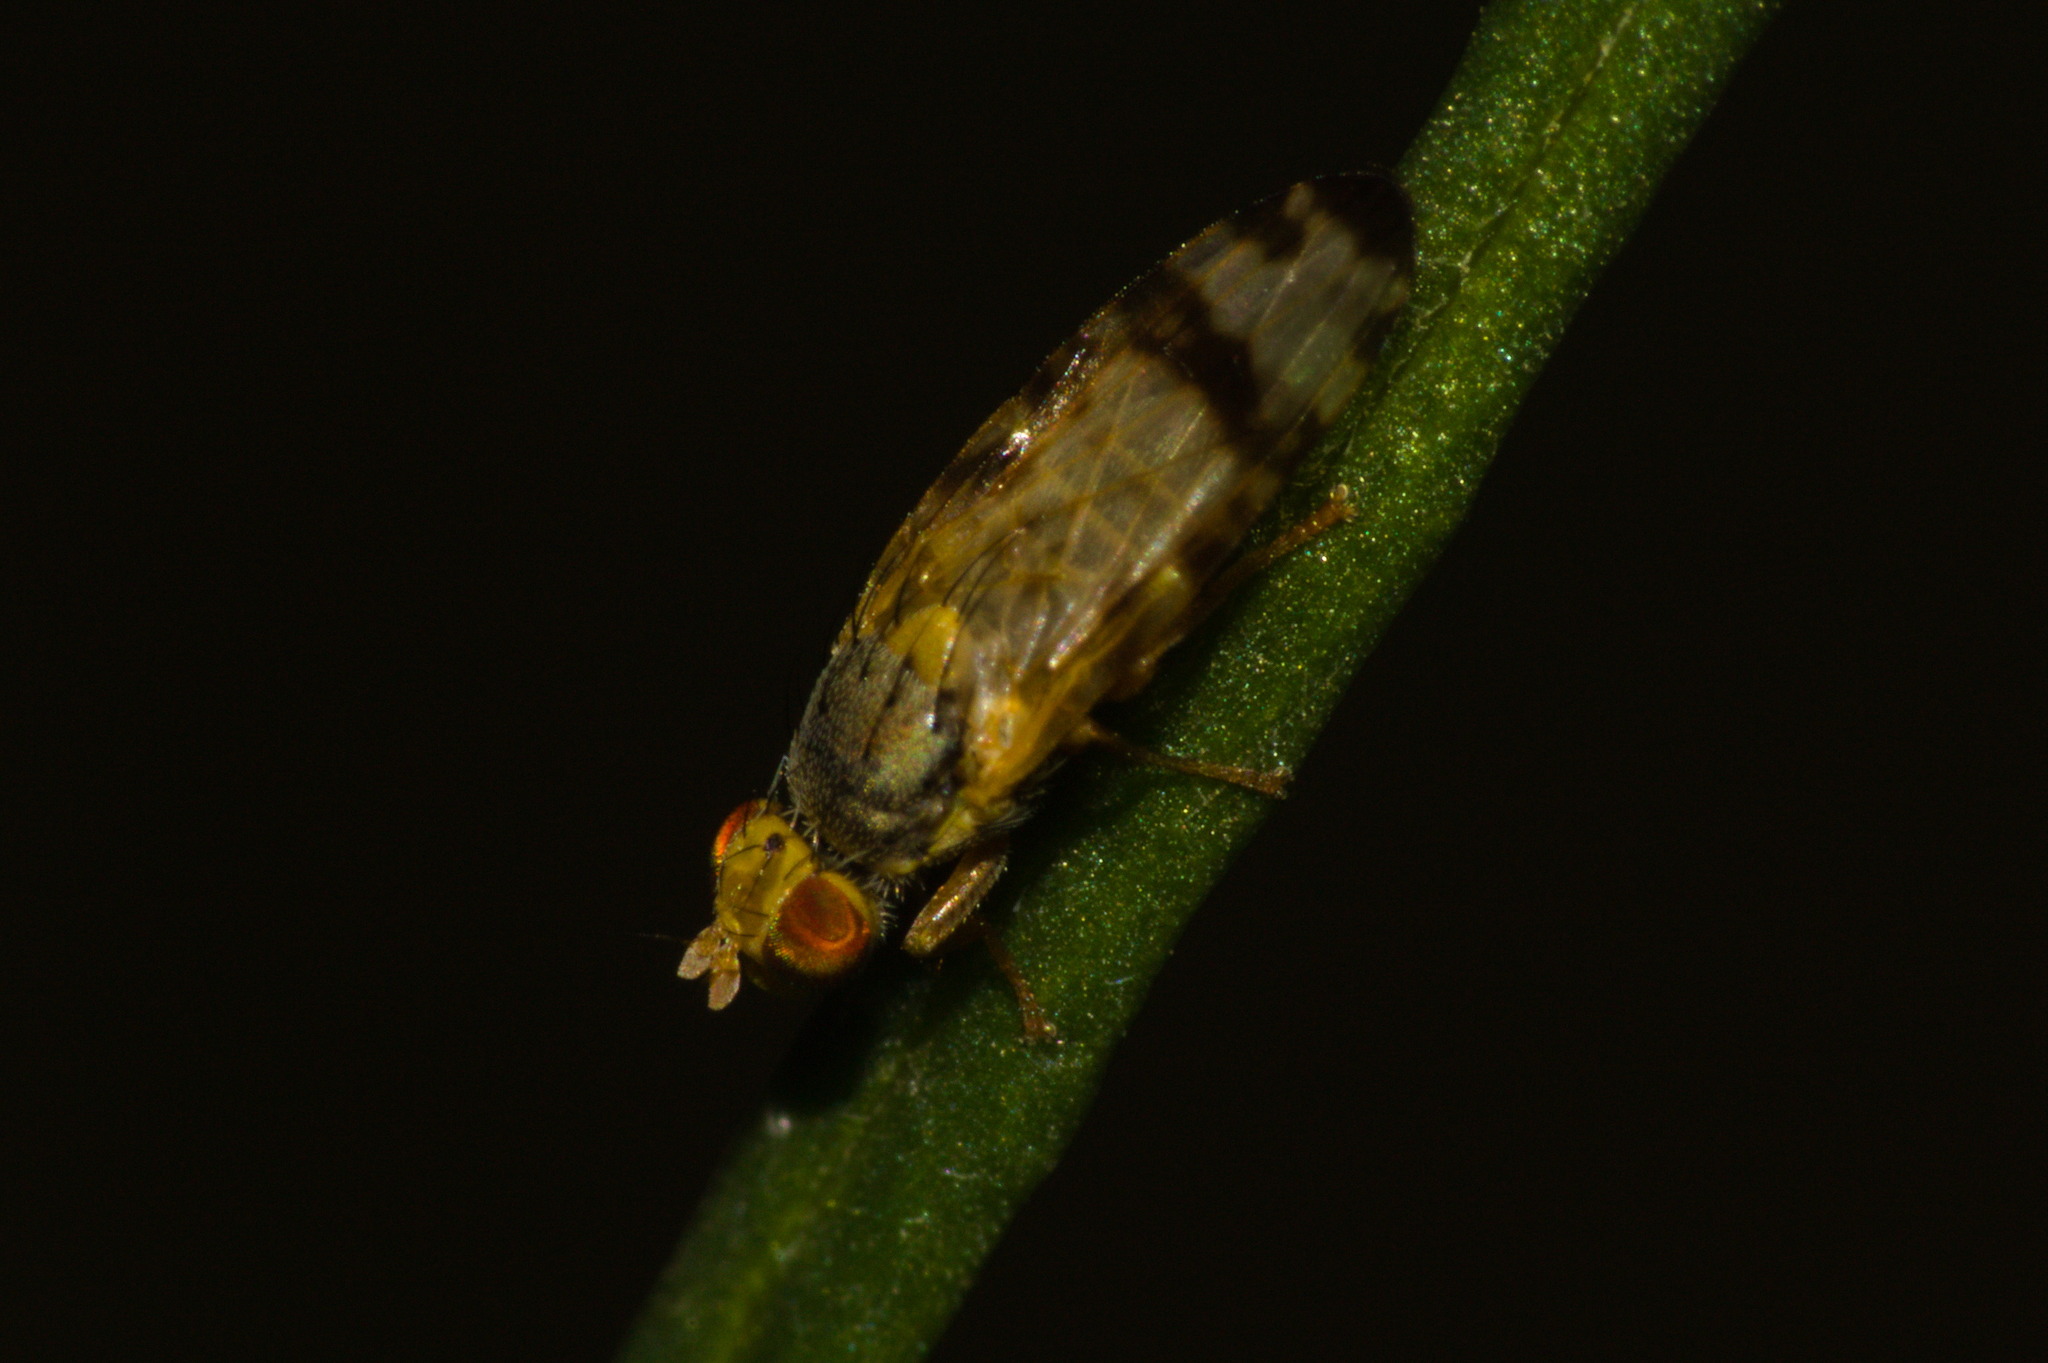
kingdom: Animalia
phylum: Arthropoda
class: Insecta
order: Diptera
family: Tephritidae
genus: Sphenella
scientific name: Sphenella marginata
